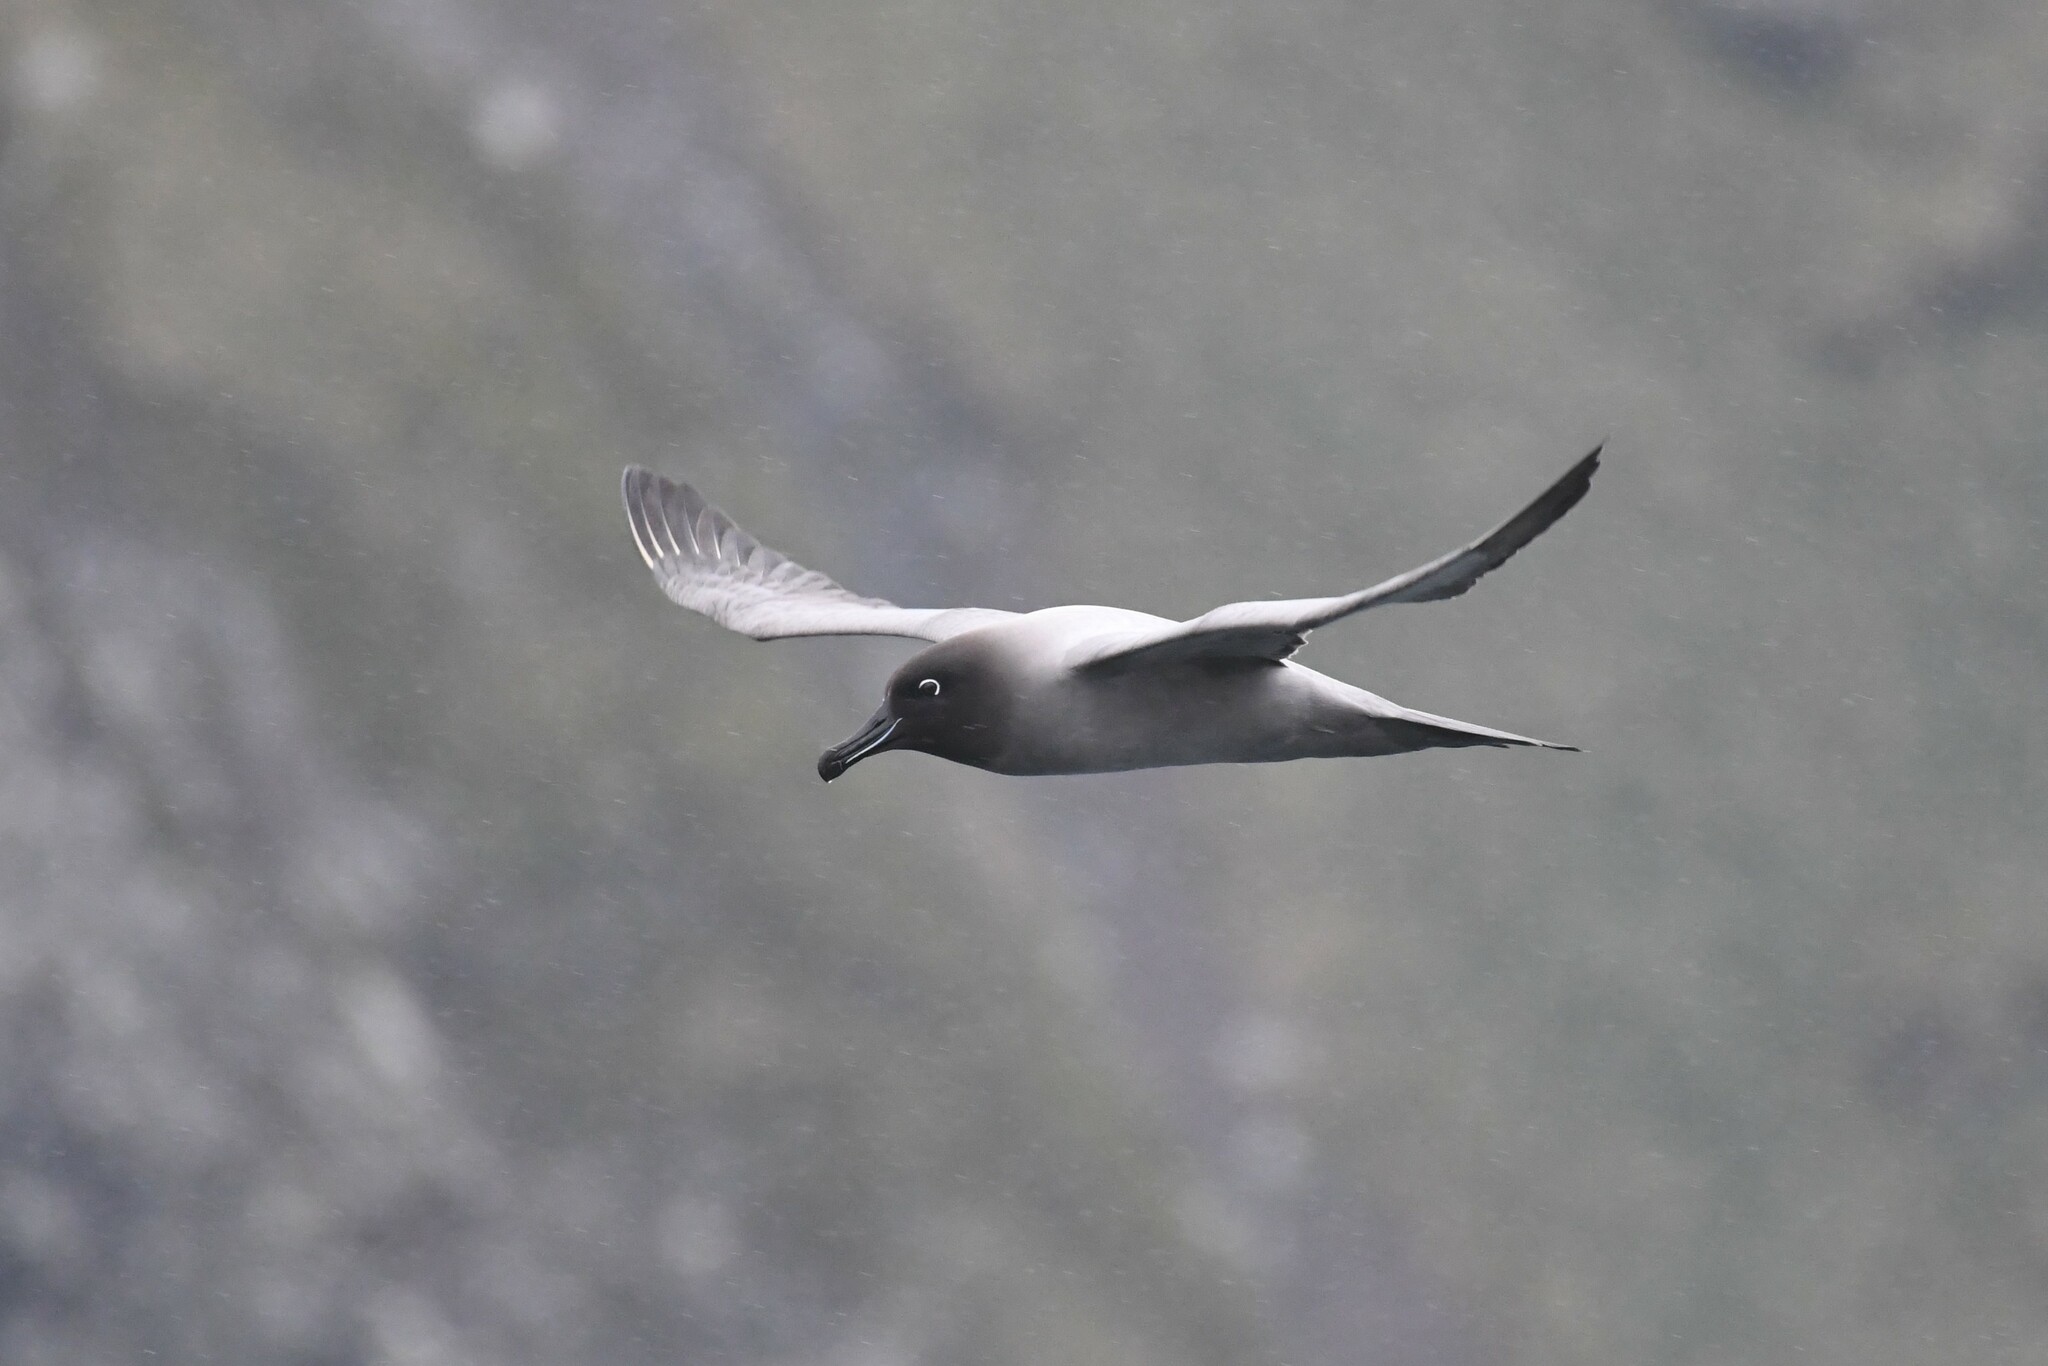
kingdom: Animalia
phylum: Chordata
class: Aves
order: Procellariiformes
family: Diomedeidae
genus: Phoebetria
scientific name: Phoebetria palpebrata
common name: Light-mantled albatross
